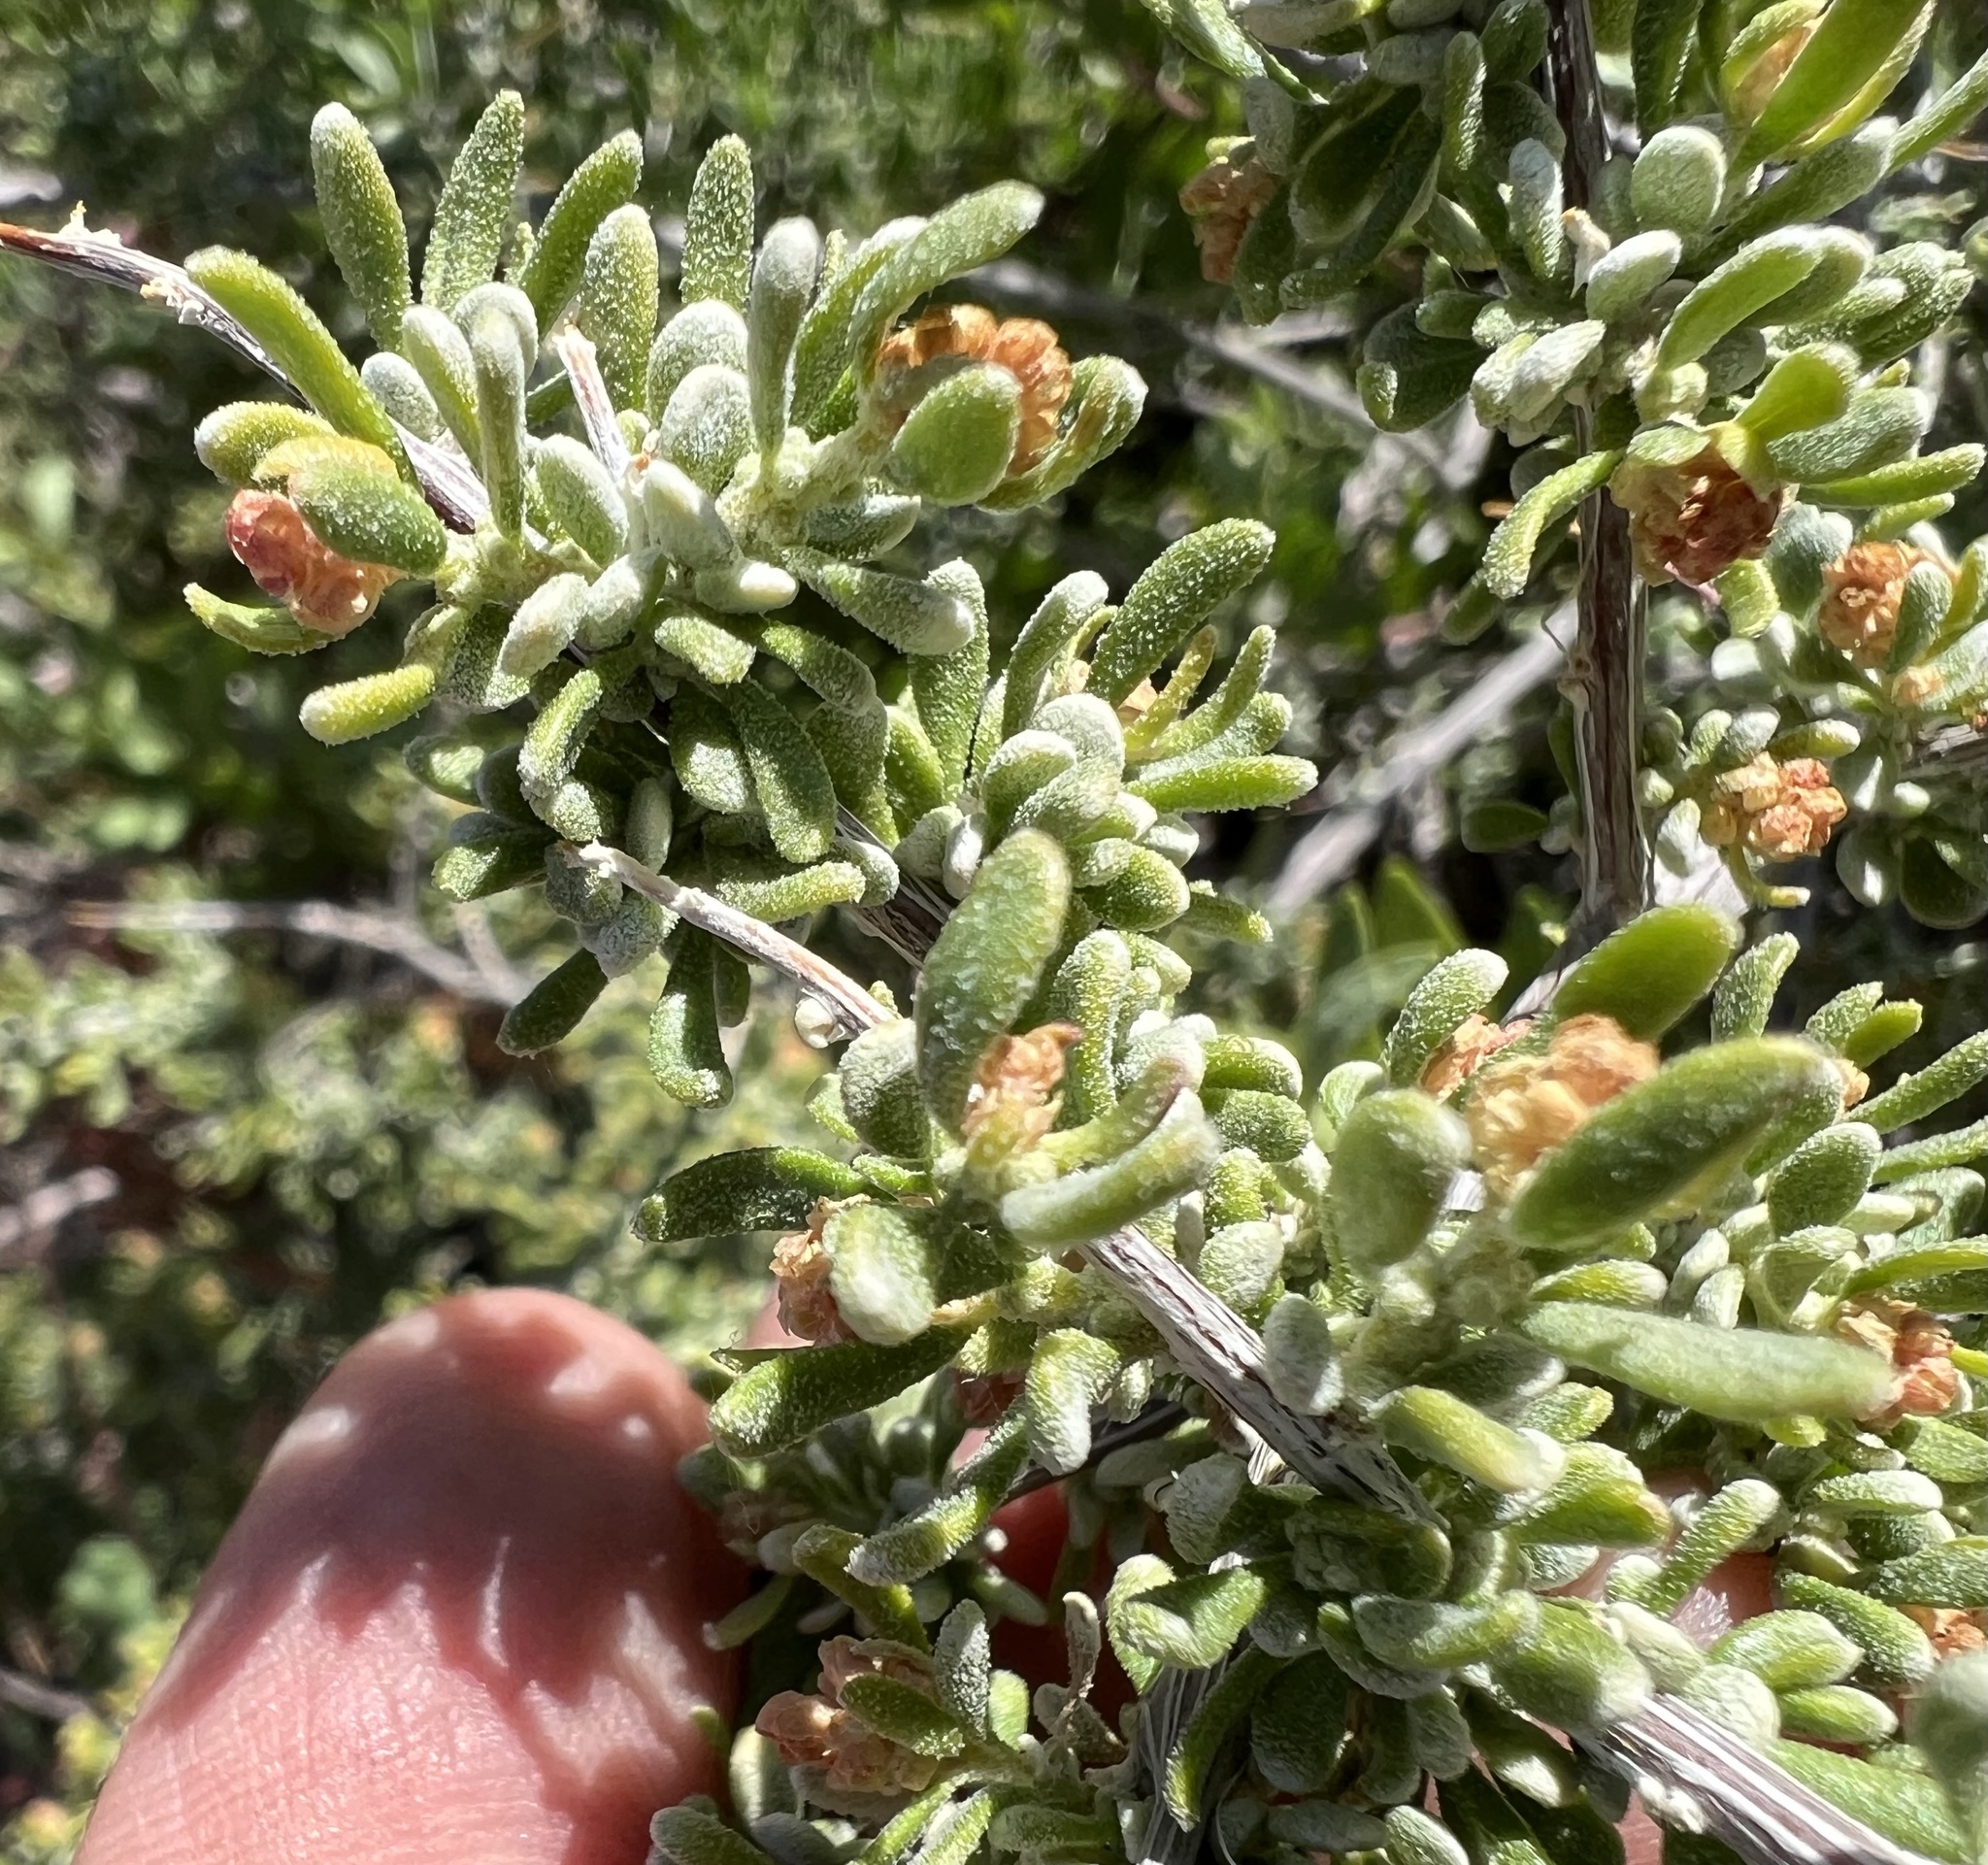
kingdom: Plantae
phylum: Tracheophyta
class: Magnoliopsida
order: Caryophyllales
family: Amaranthaceae
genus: Grayia
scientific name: Grayia spinosa
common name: Spiny hopsage
